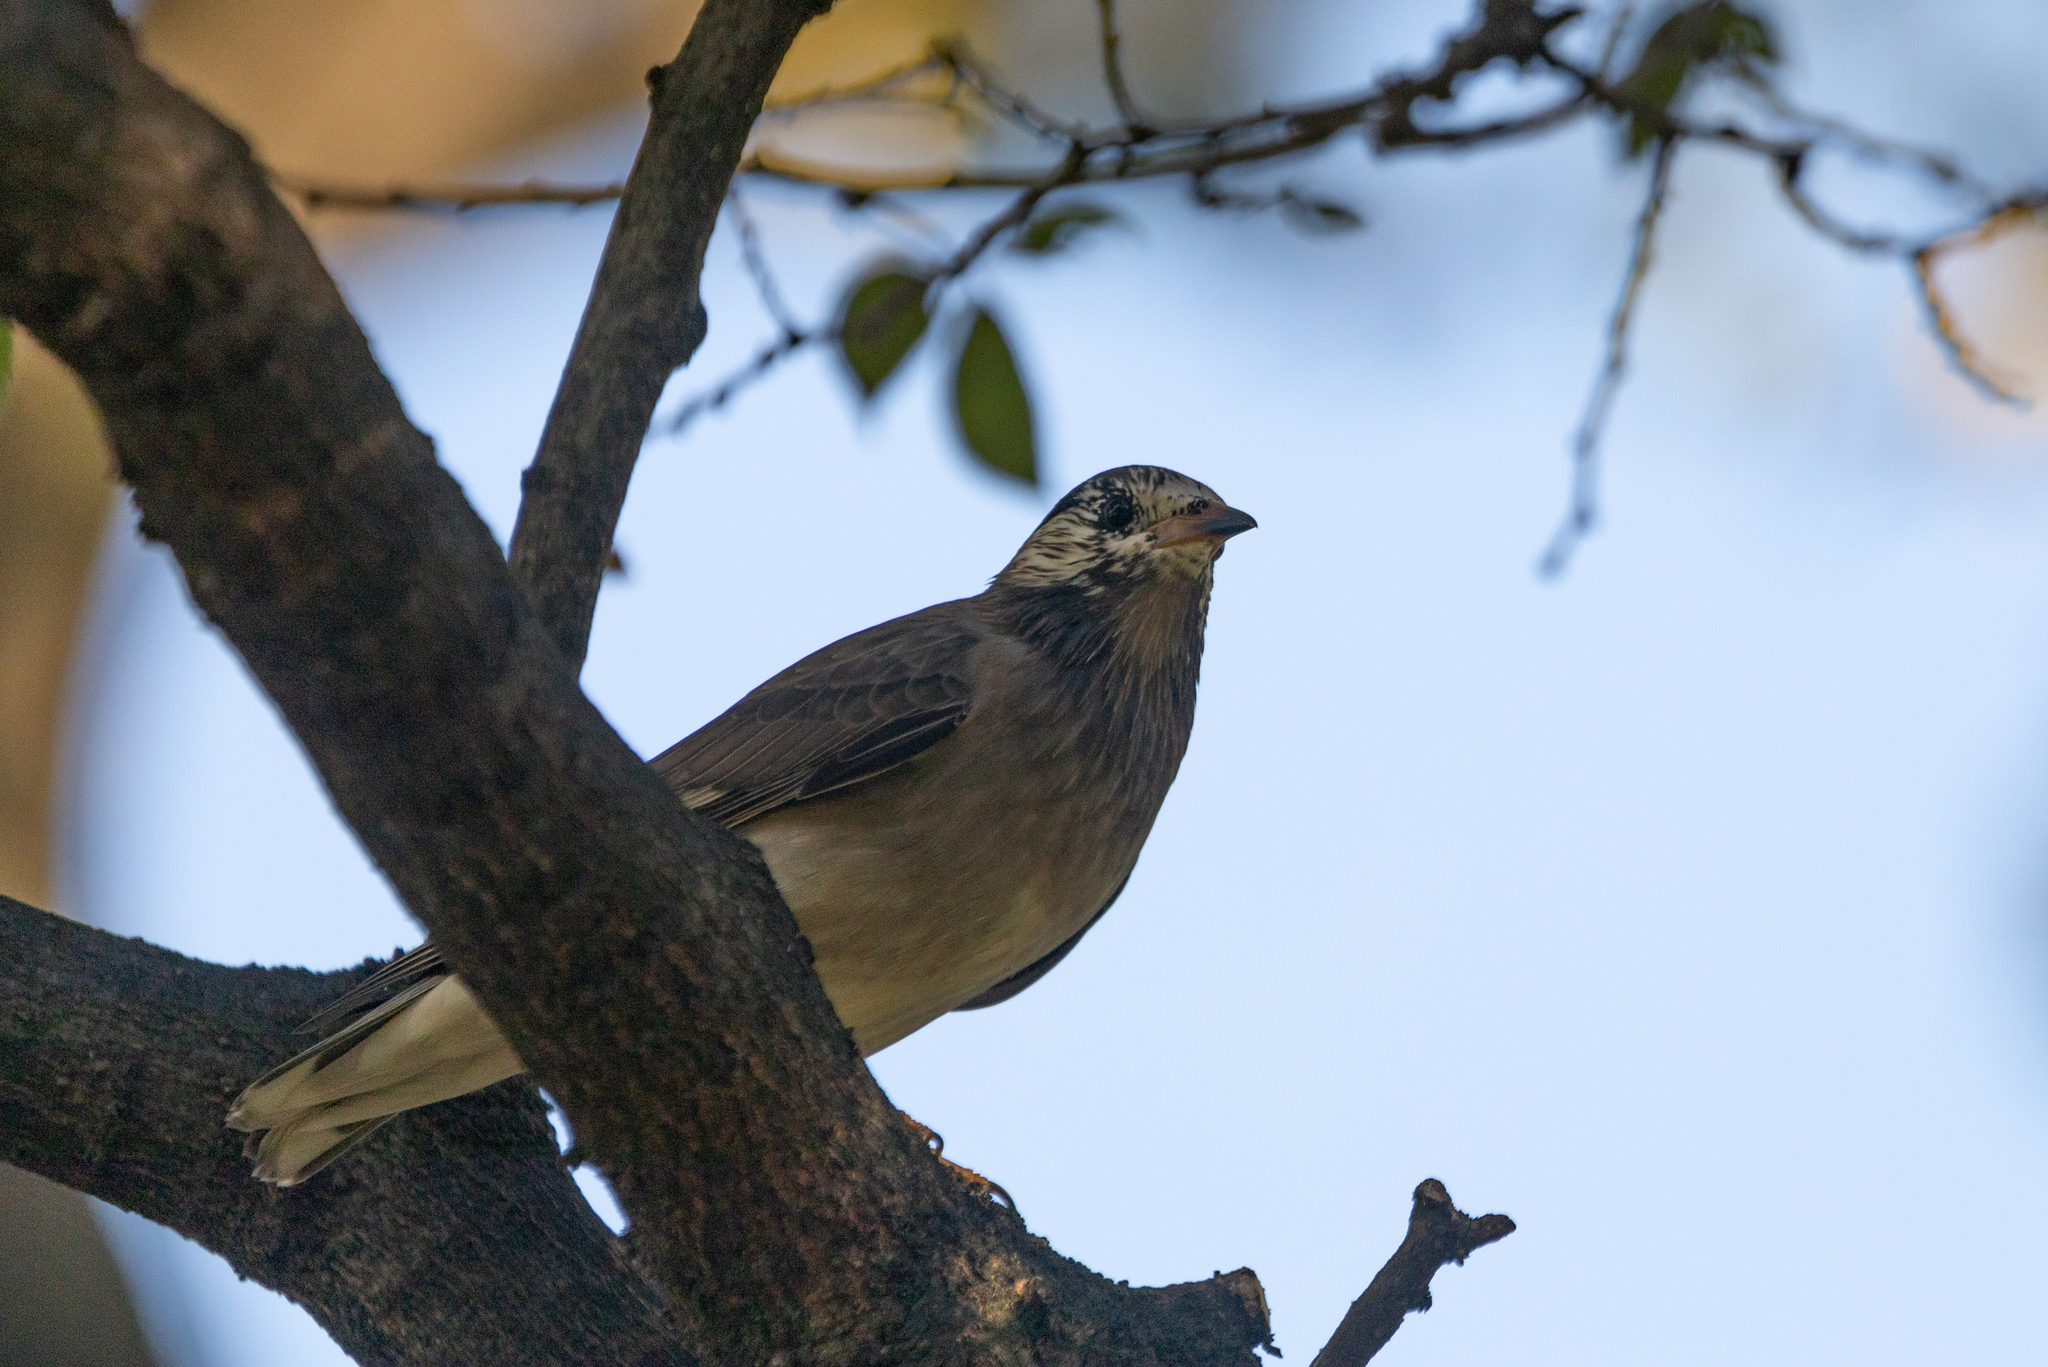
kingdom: Animalia
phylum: Chordata
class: Aves
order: Passeriformes
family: Sturnidae
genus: Spodiopsar
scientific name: Spodiopsar cineraceus
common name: White-cheeked starling
